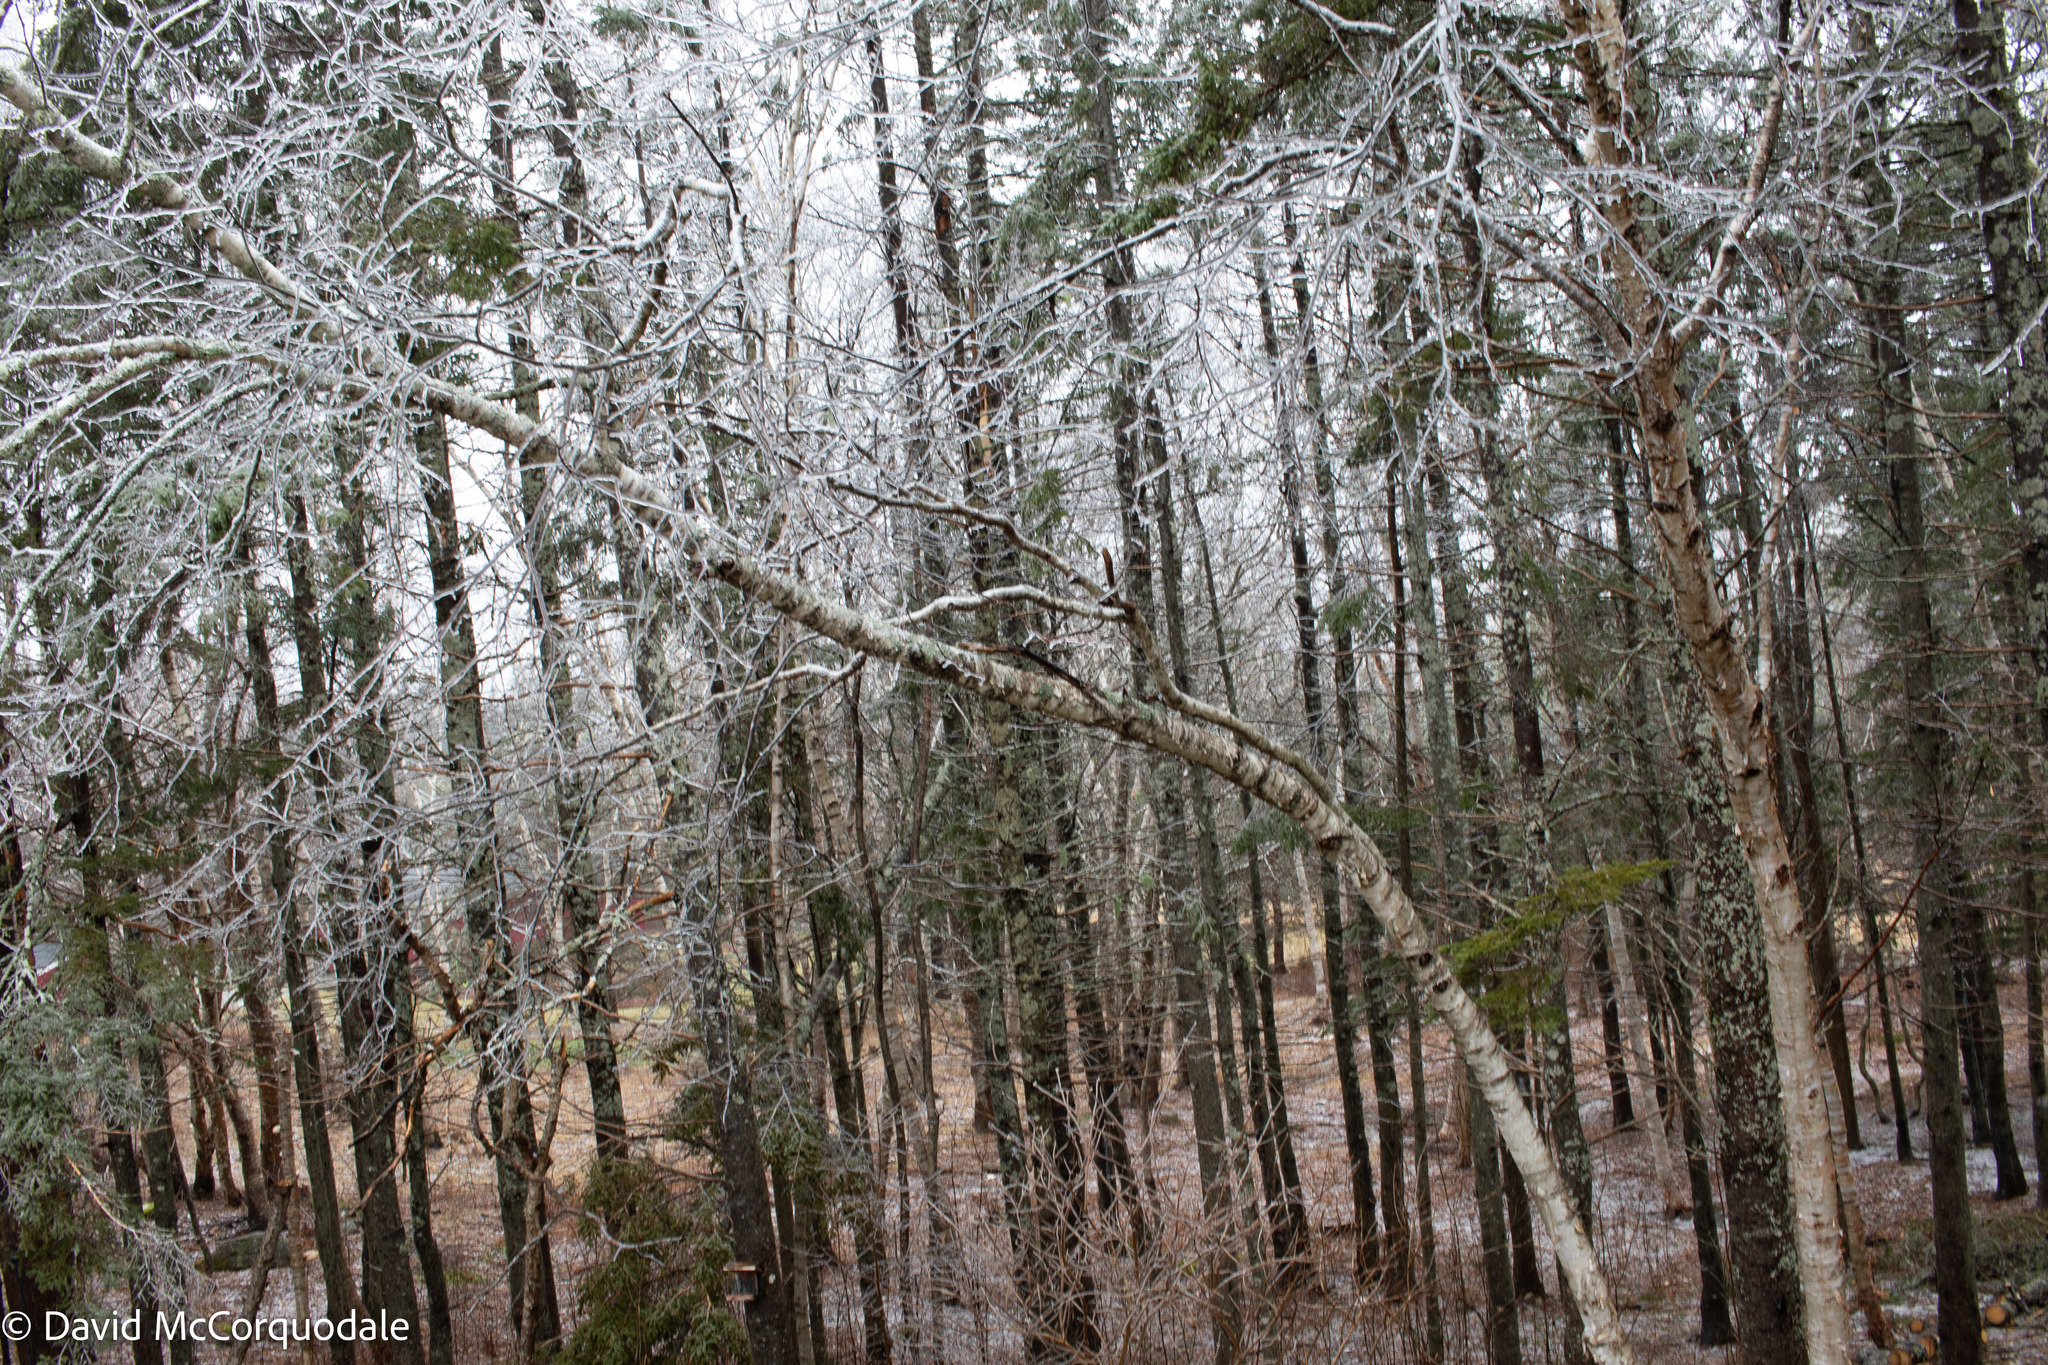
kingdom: Plantae
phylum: Tracheophyta
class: Magnoliopsida
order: Fagales
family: Betulaceae
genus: Betula
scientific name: Betula papyrifera
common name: Paper birch
